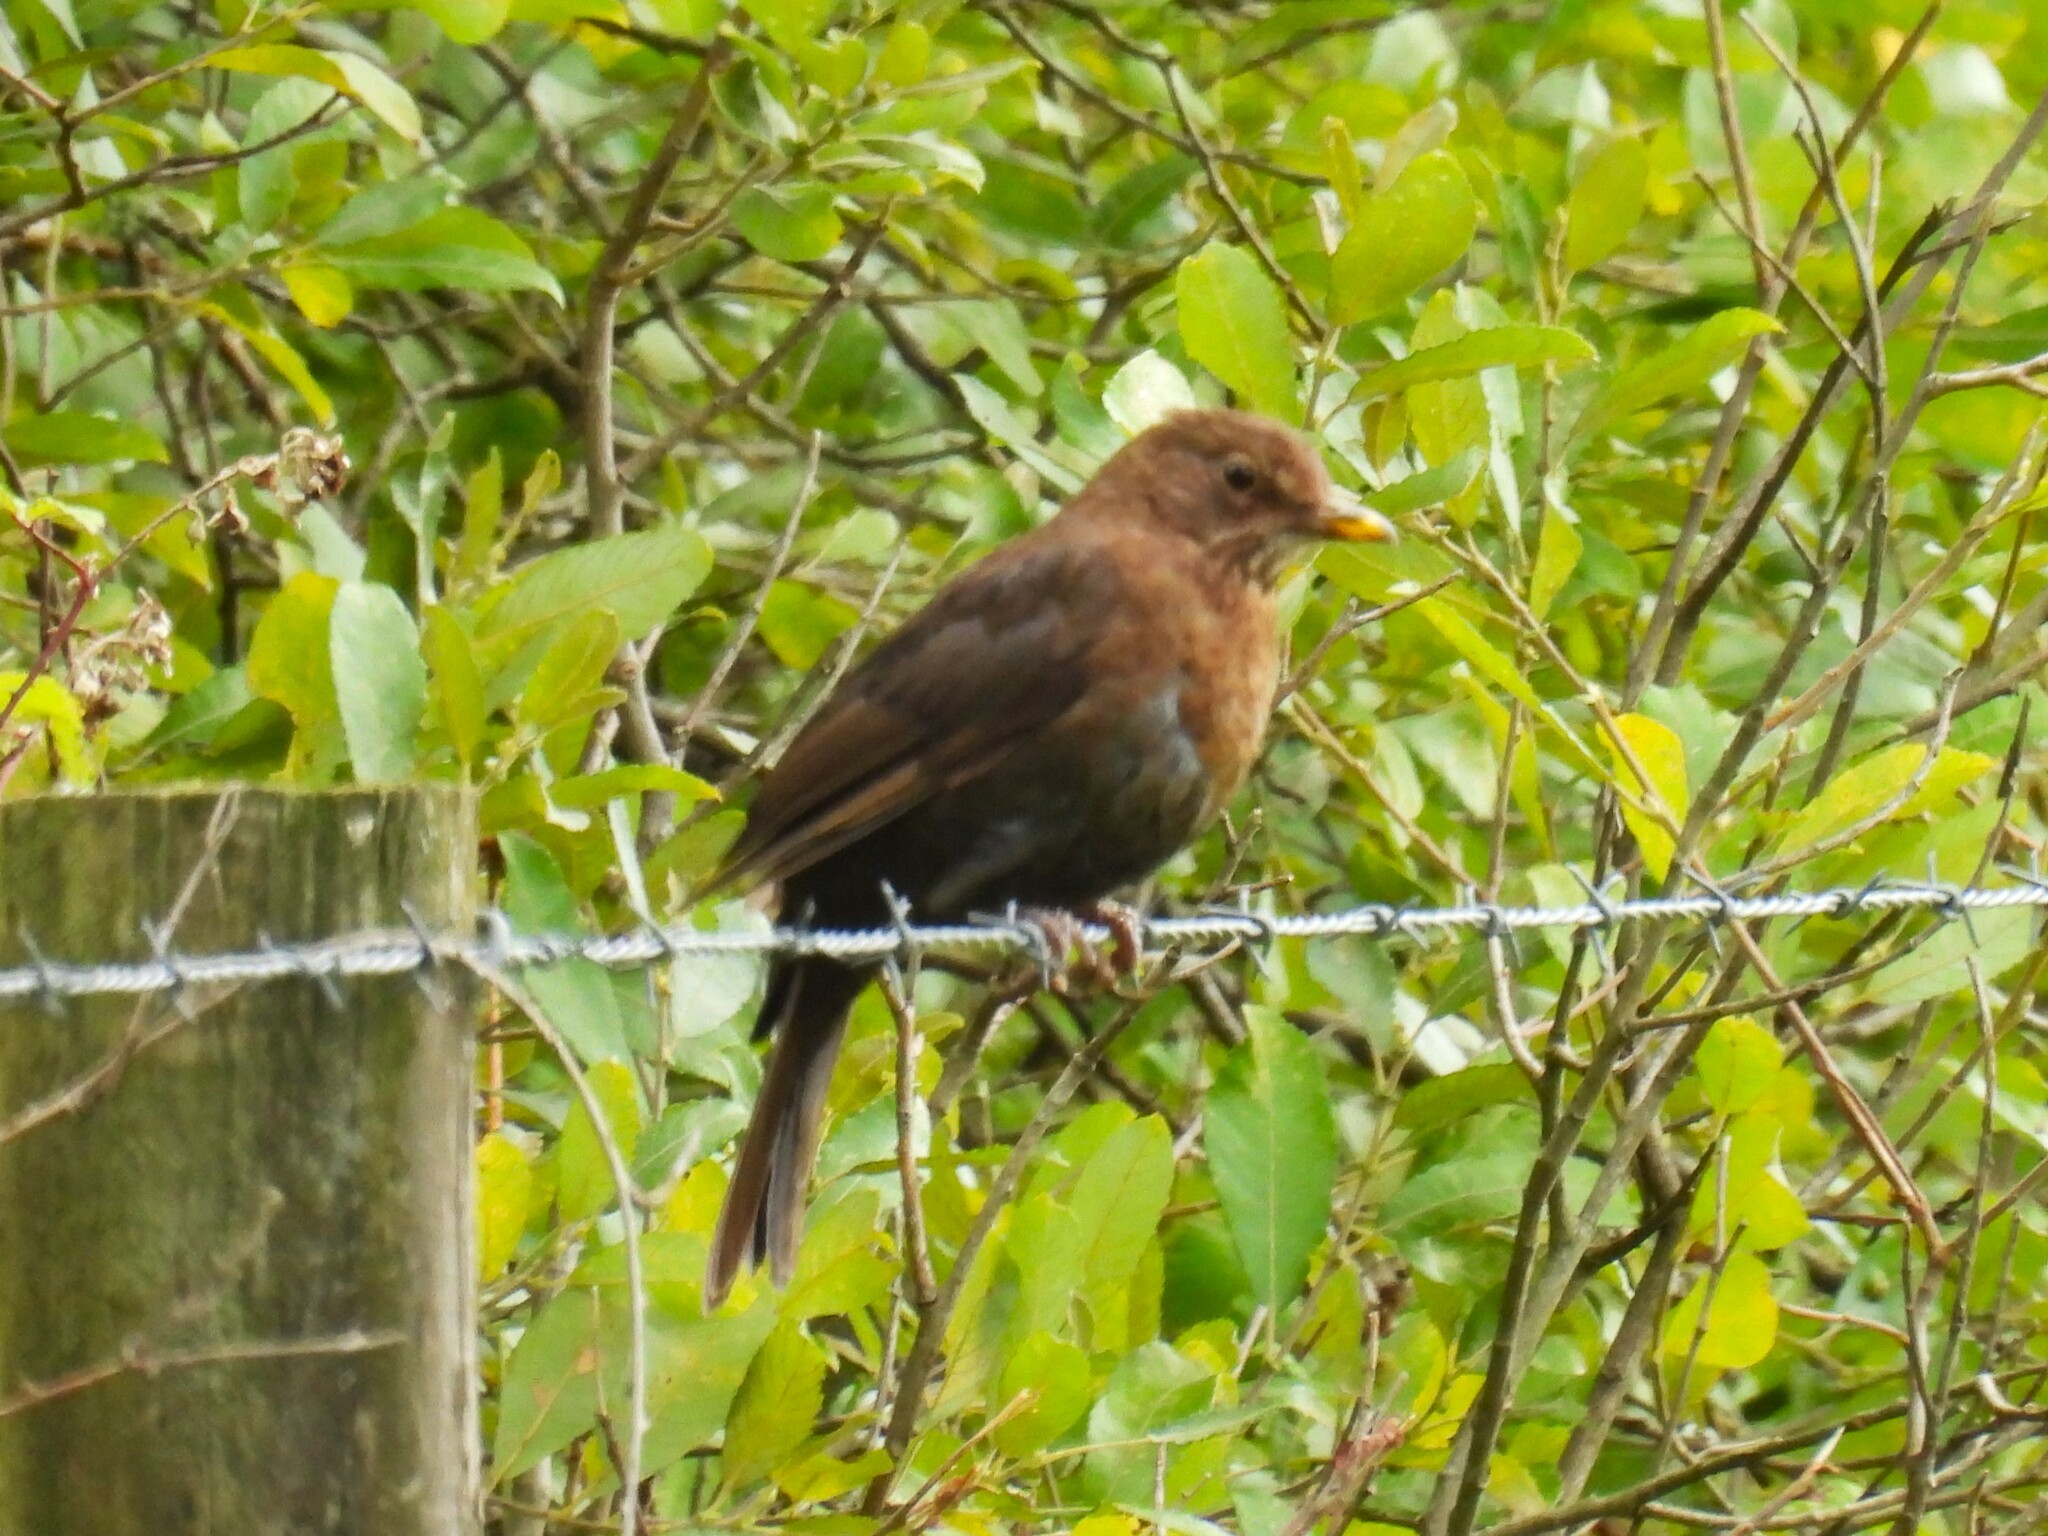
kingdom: Animalia
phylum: Chordata
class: Aves
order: Passeriformes
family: Turdidae
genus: Turdus
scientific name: Turdus merula
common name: Common blackbird
